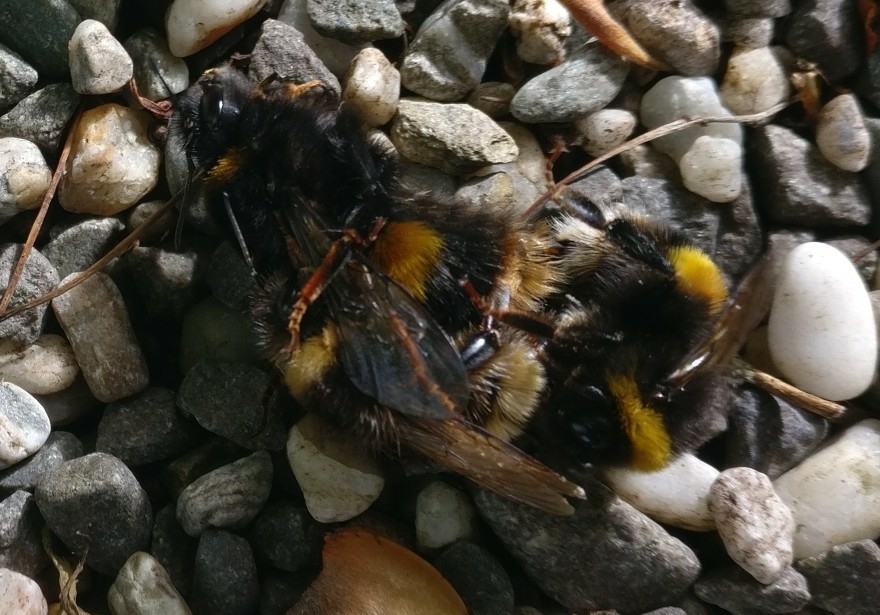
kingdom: Animalia
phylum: Arthropoda
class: Insecta
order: Hymenoptera
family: Apidae
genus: Bombus
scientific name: Bombus terrestris
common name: Buff-tailed bumblebee
